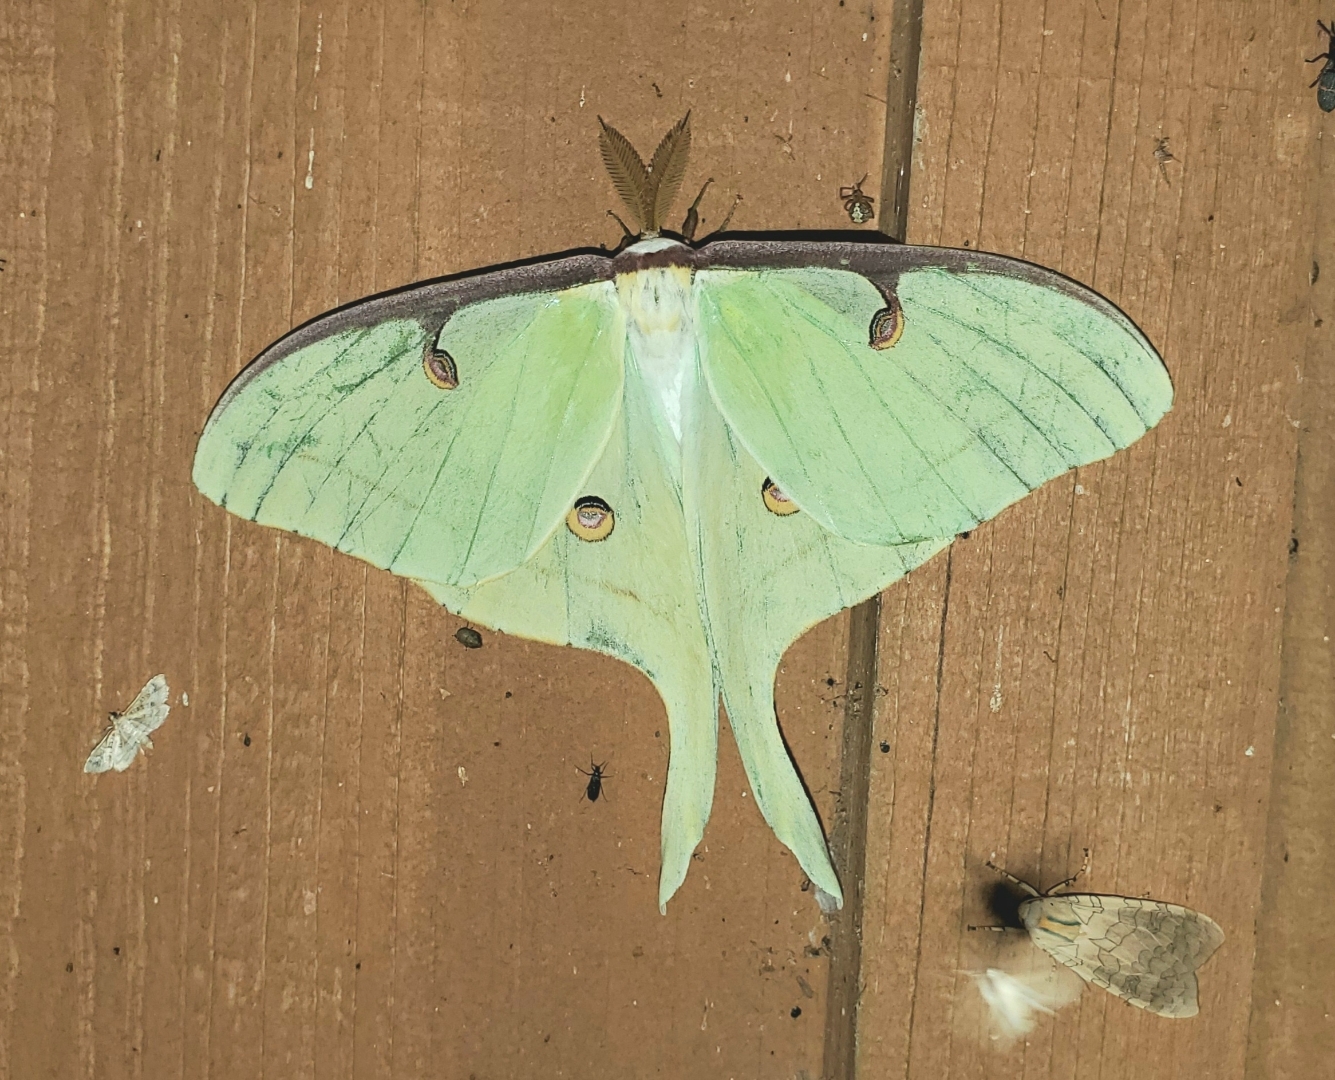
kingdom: Animalia
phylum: Arthropoda
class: Insecta
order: Lepidoptera
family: Saturniidae
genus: Actias
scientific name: Actias luna
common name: Luna moth
